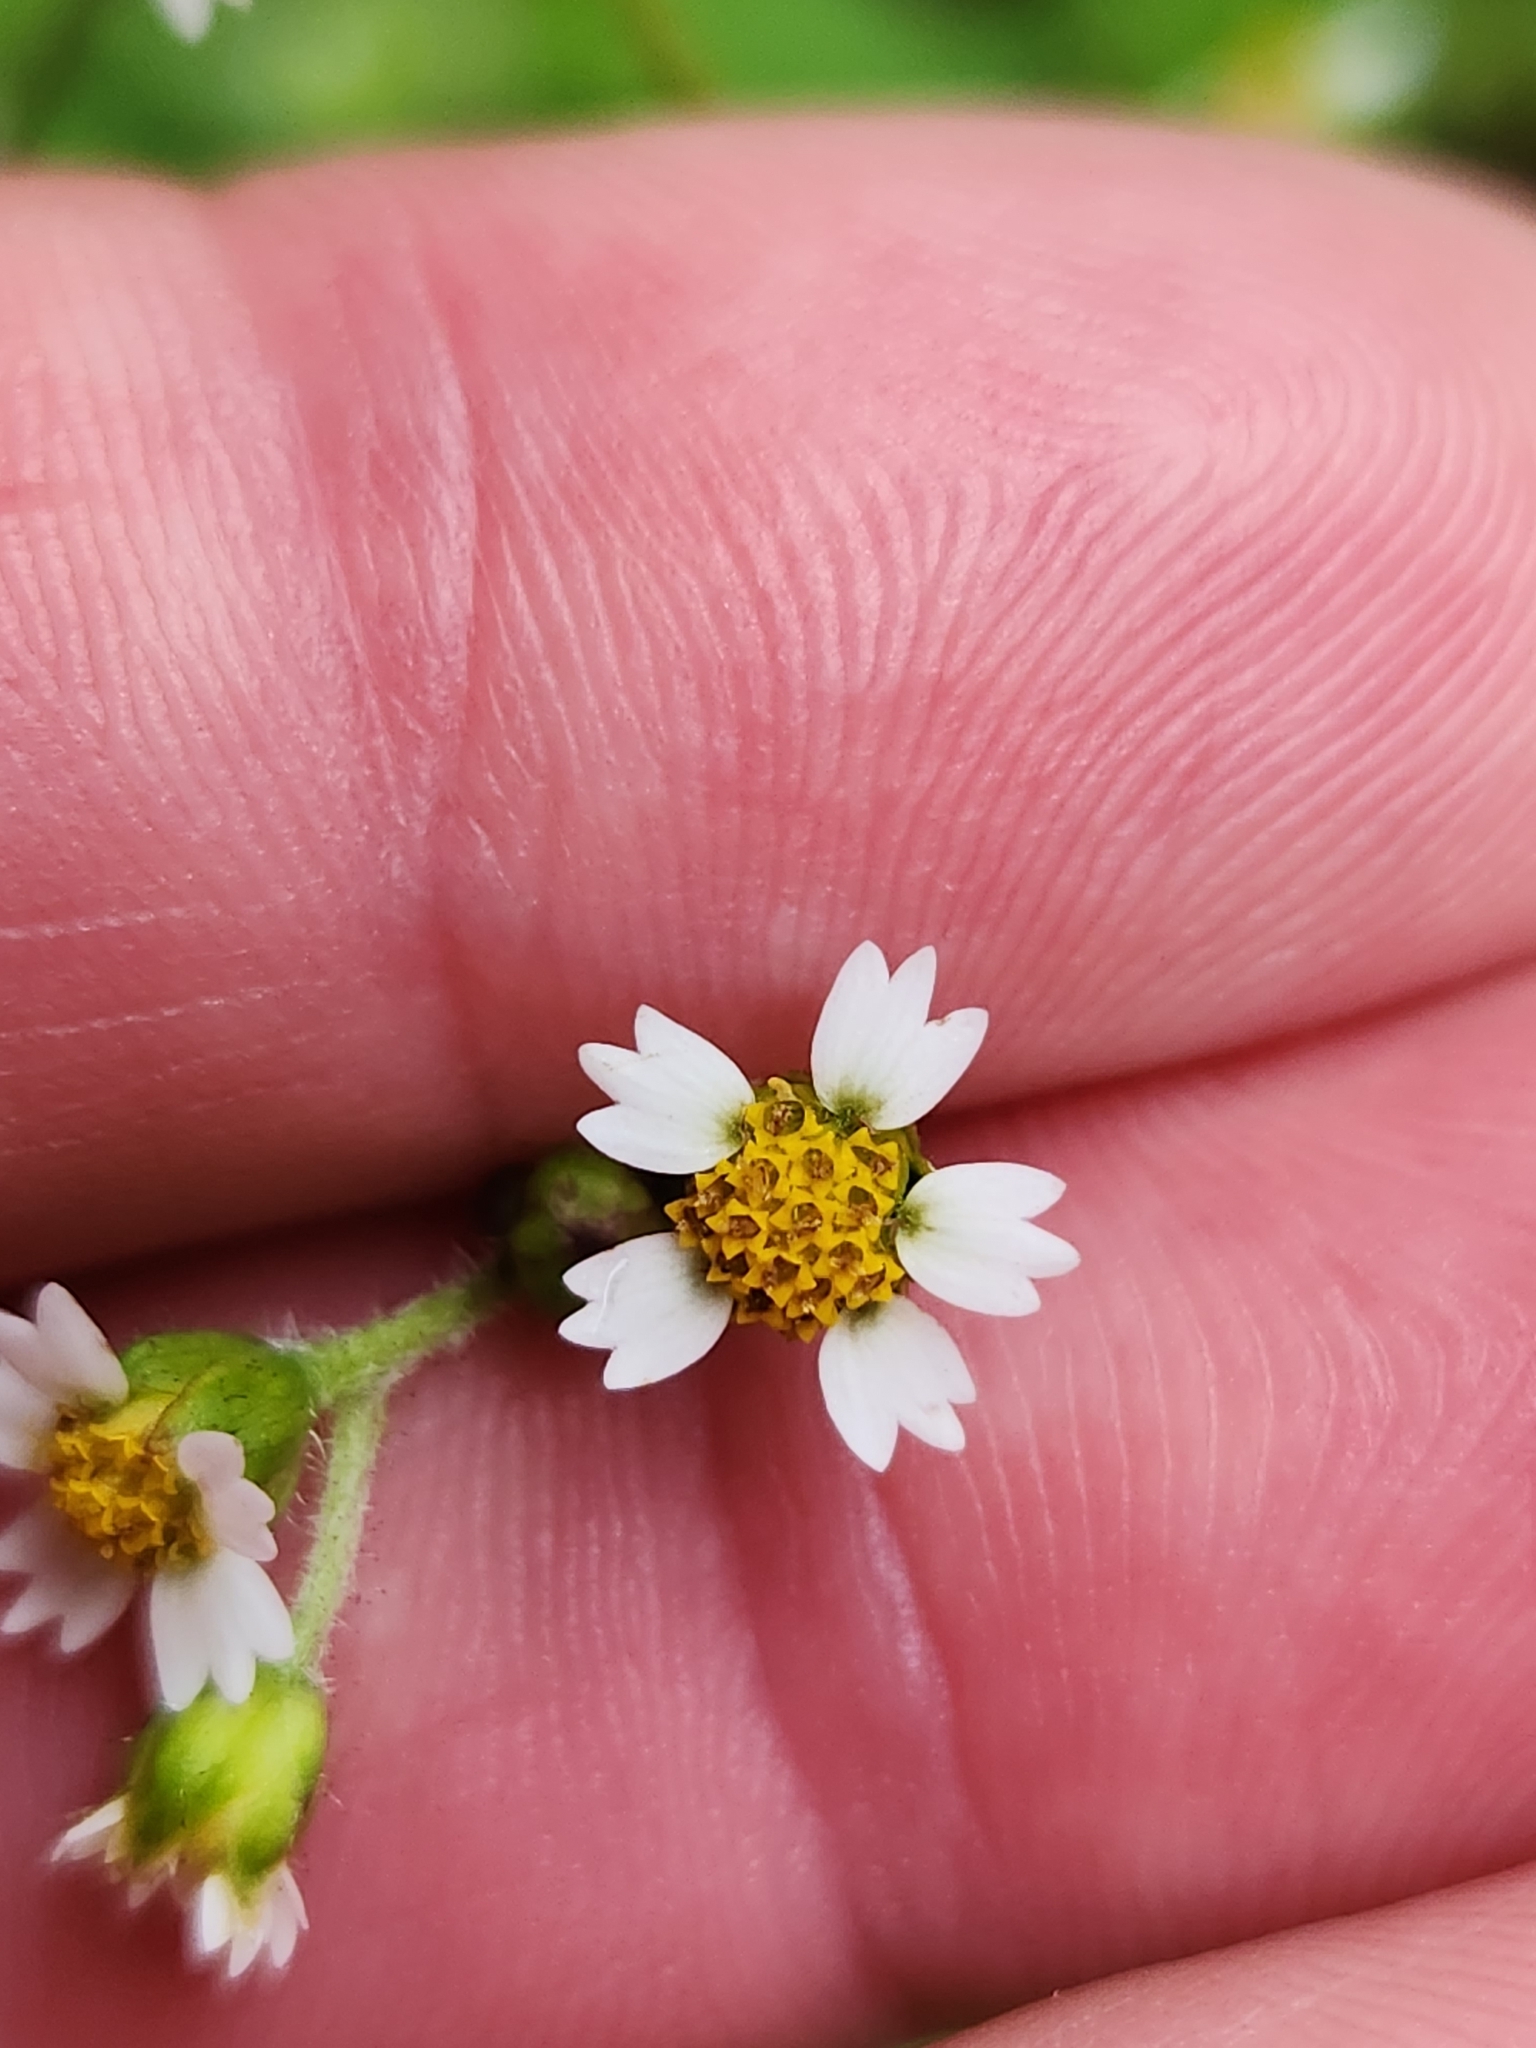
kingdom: Plantae
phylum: Tracheophyta
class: Magnoliopsida
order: Asterales
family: Asteraceae
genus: Galinsoga
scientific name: Galinsoga quadriradiata
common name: Shaggy soldier
